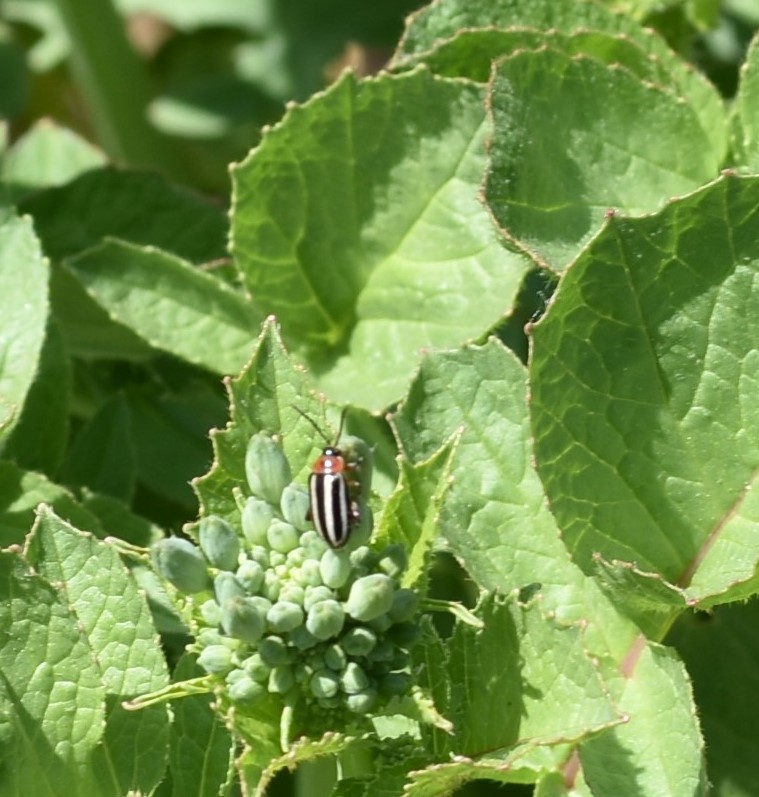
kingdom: Animalia
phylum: Arthropoda
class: Insecta
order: Coleoptera
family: Chrysomelidae
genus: Disonycha
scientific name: Disonycha glabrata
